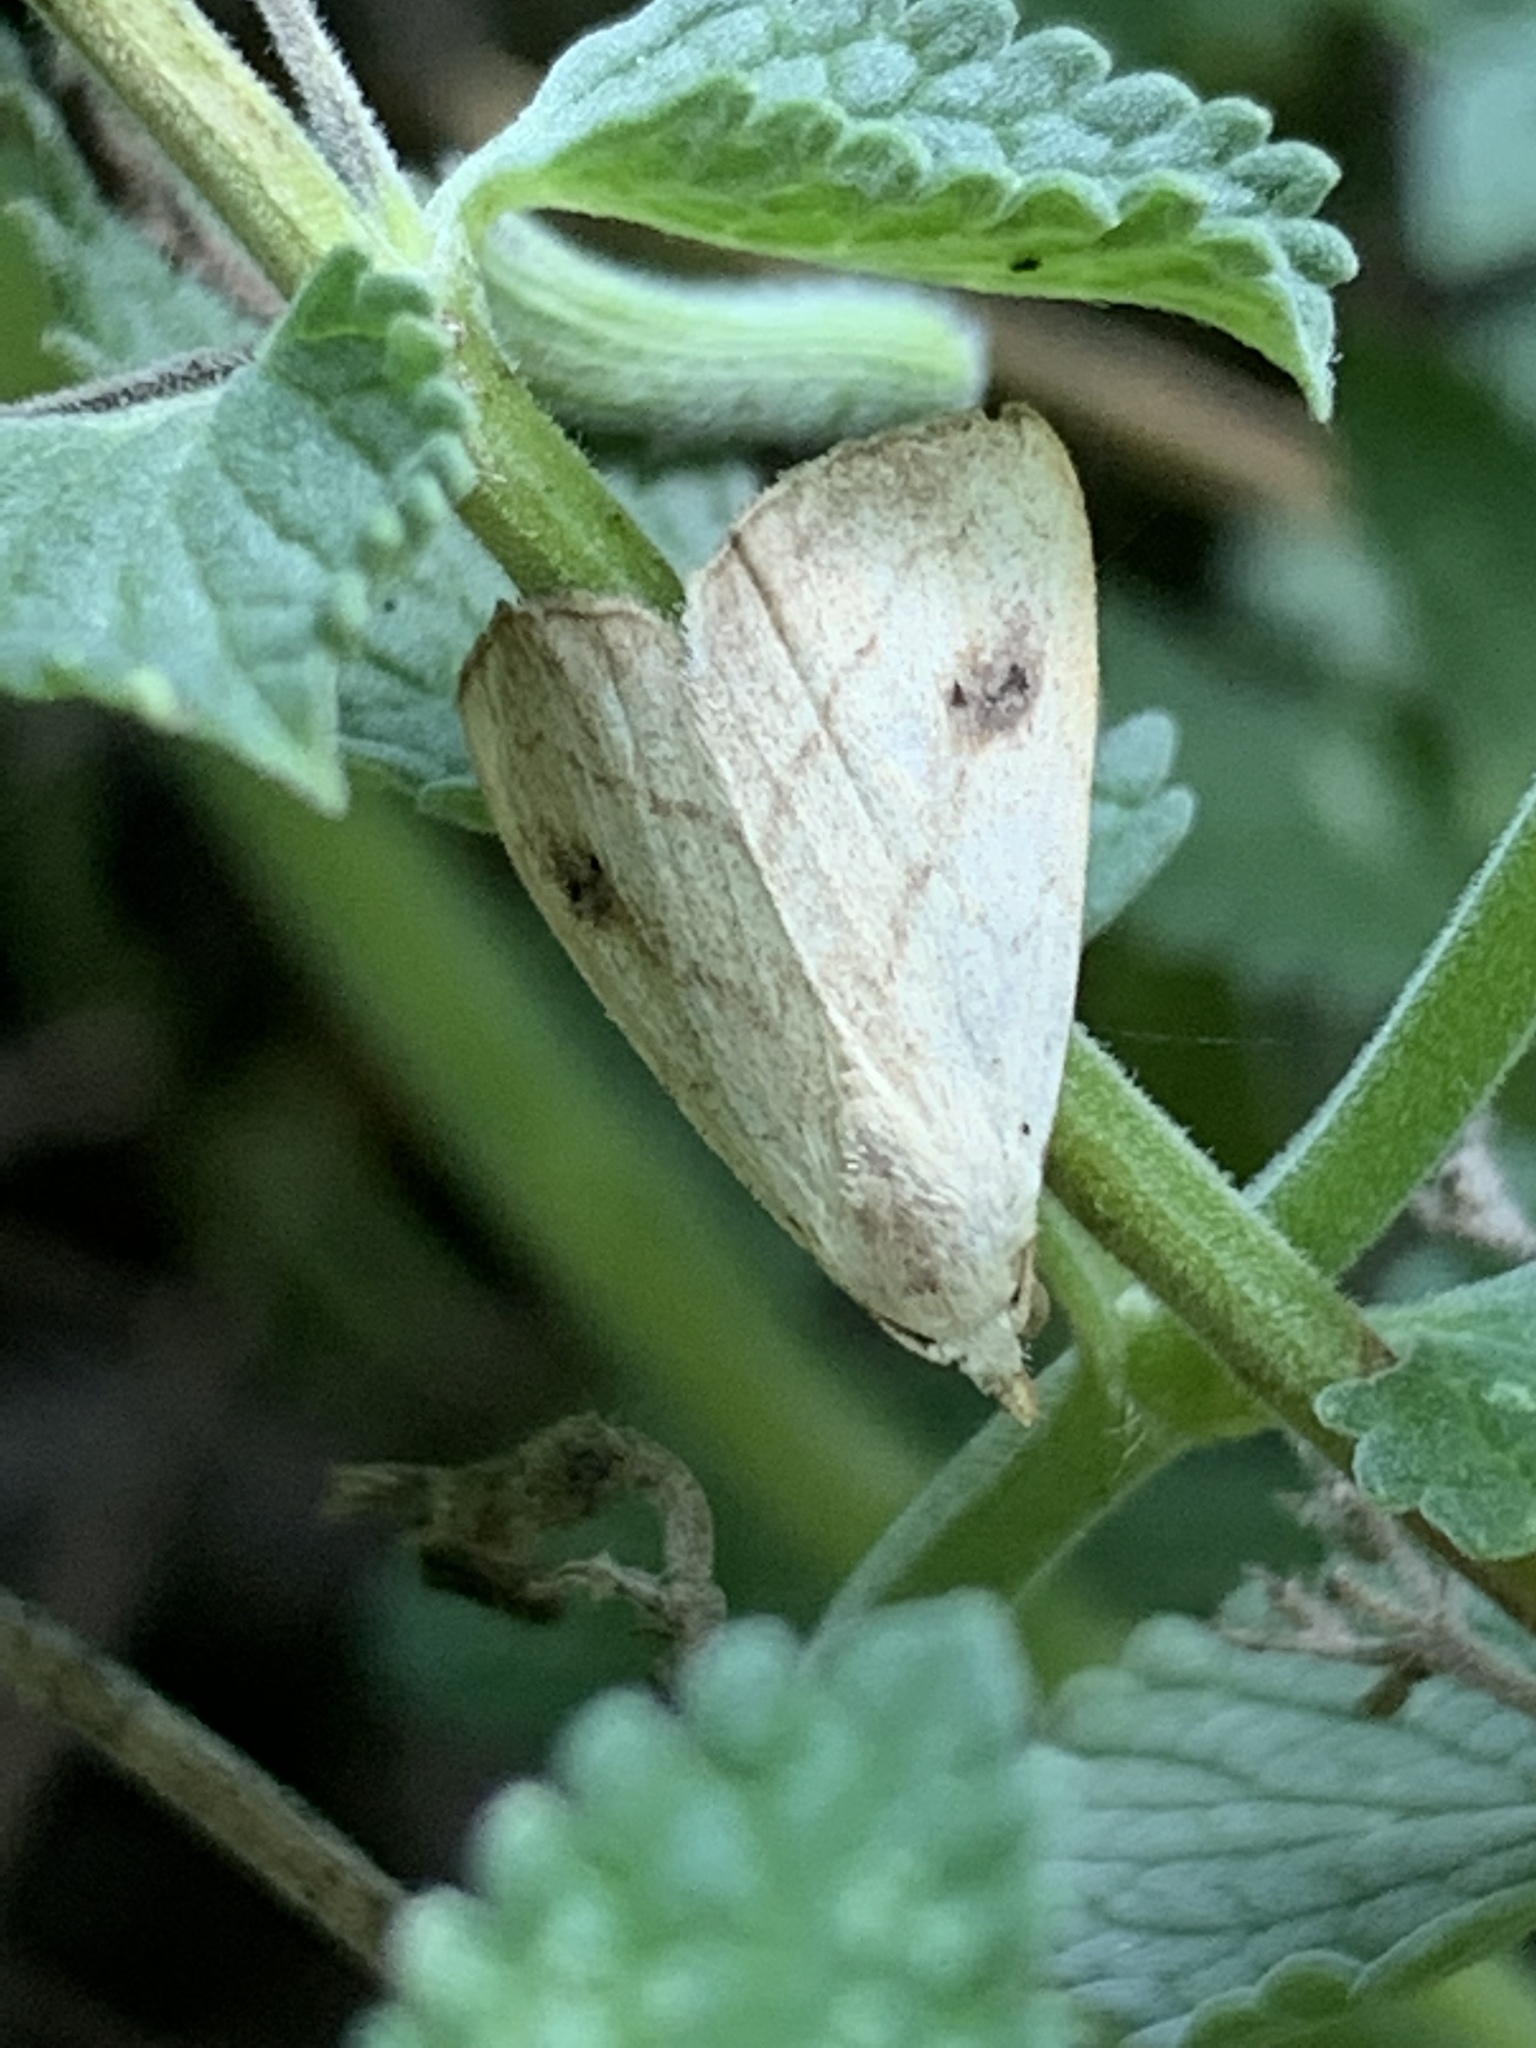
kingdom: Animalia
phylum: Arthropoda
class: Insecta
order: Lepidoptera
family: Erebidae
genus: Rivula
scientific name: Rivula propinqualis
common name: Spotted grass moth
